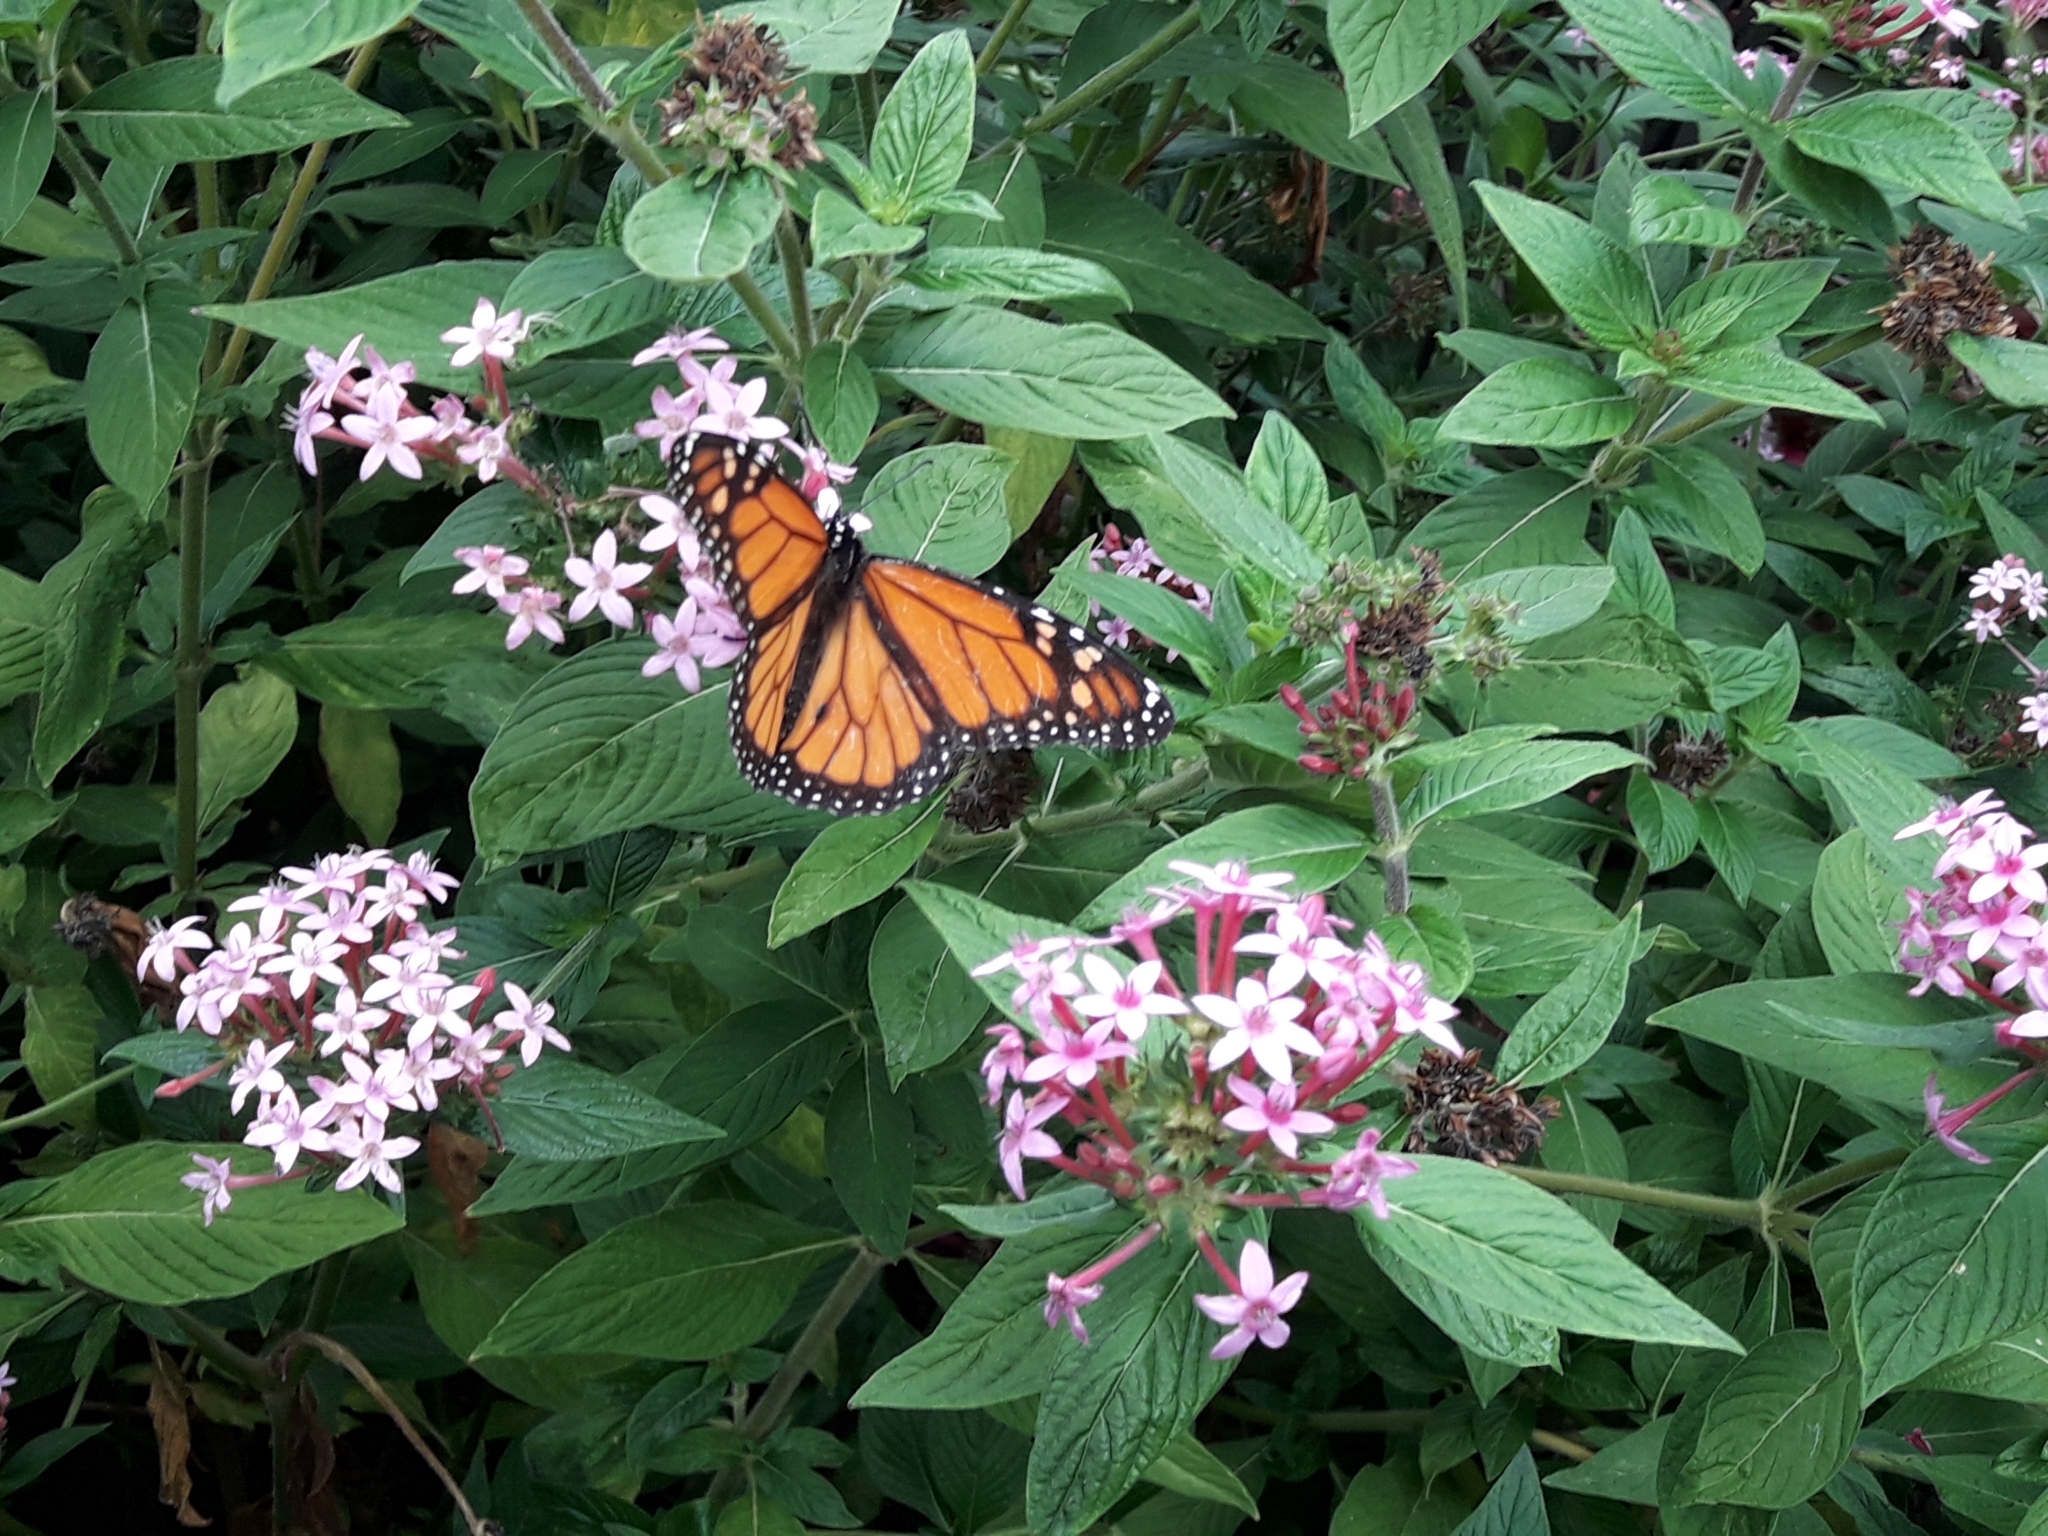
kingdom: Animalia
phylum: Arthropoda
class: Insecta
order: Lepidoptera
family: Nymphalidae
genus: Danaus
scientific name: Danaus plexippus
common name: Monarch
